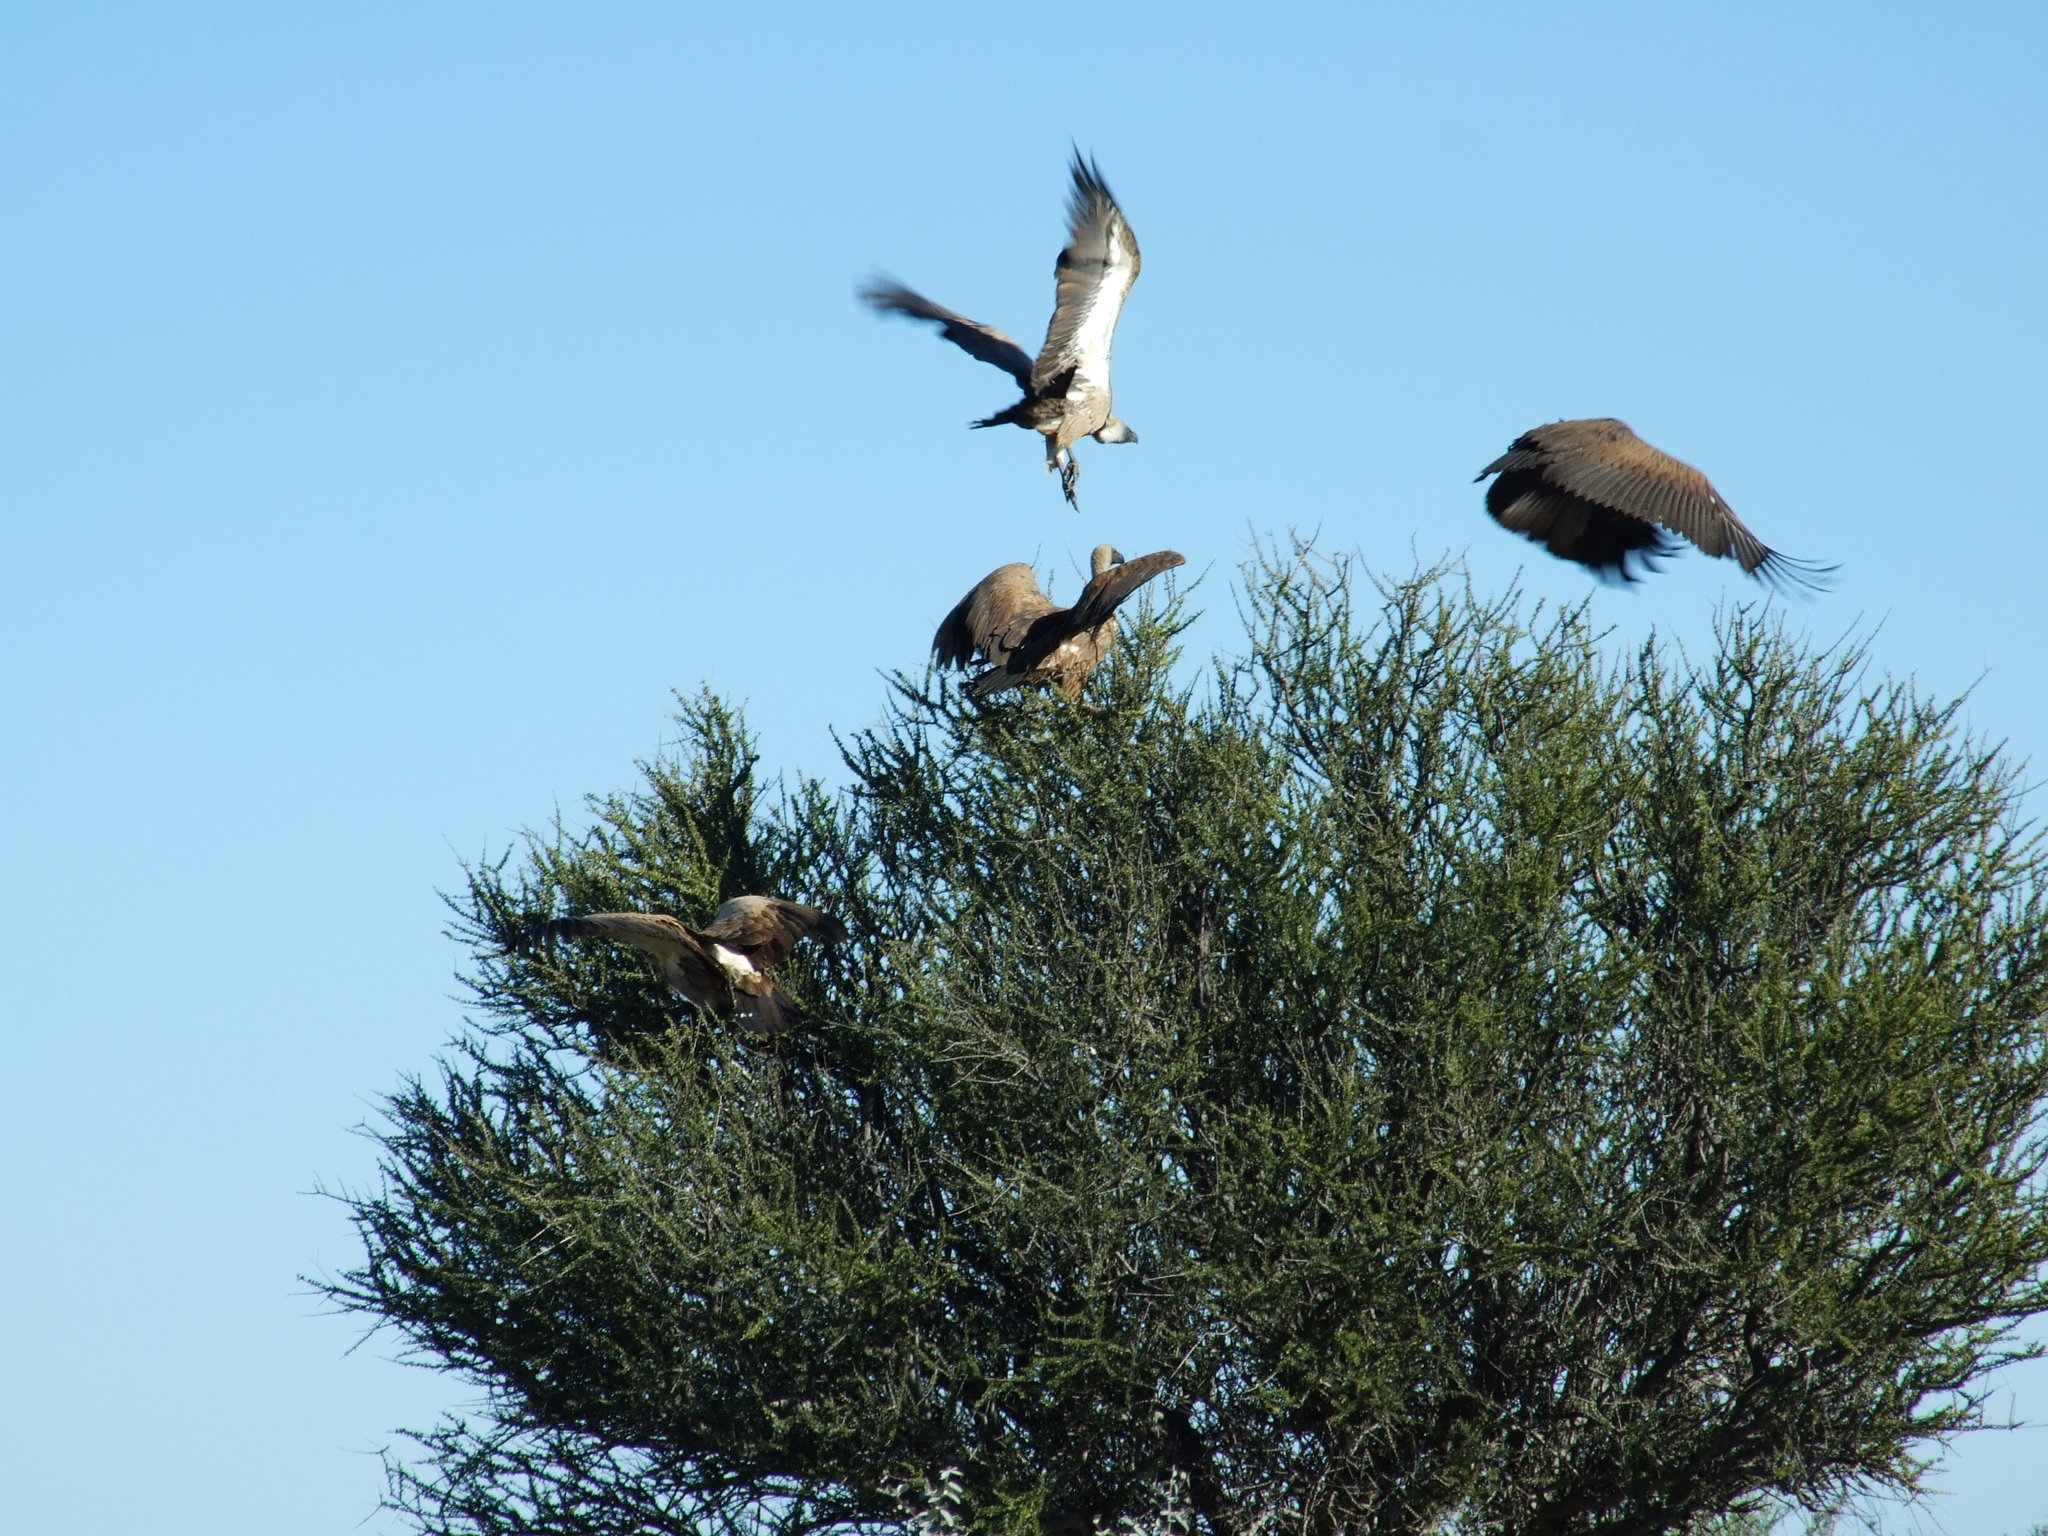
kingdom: Animalia
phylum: Chordata
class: Aves
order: Accipitriformes
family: Accipitridae
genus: Gyps
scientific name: Gyps africanus
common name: White-backed vulture
